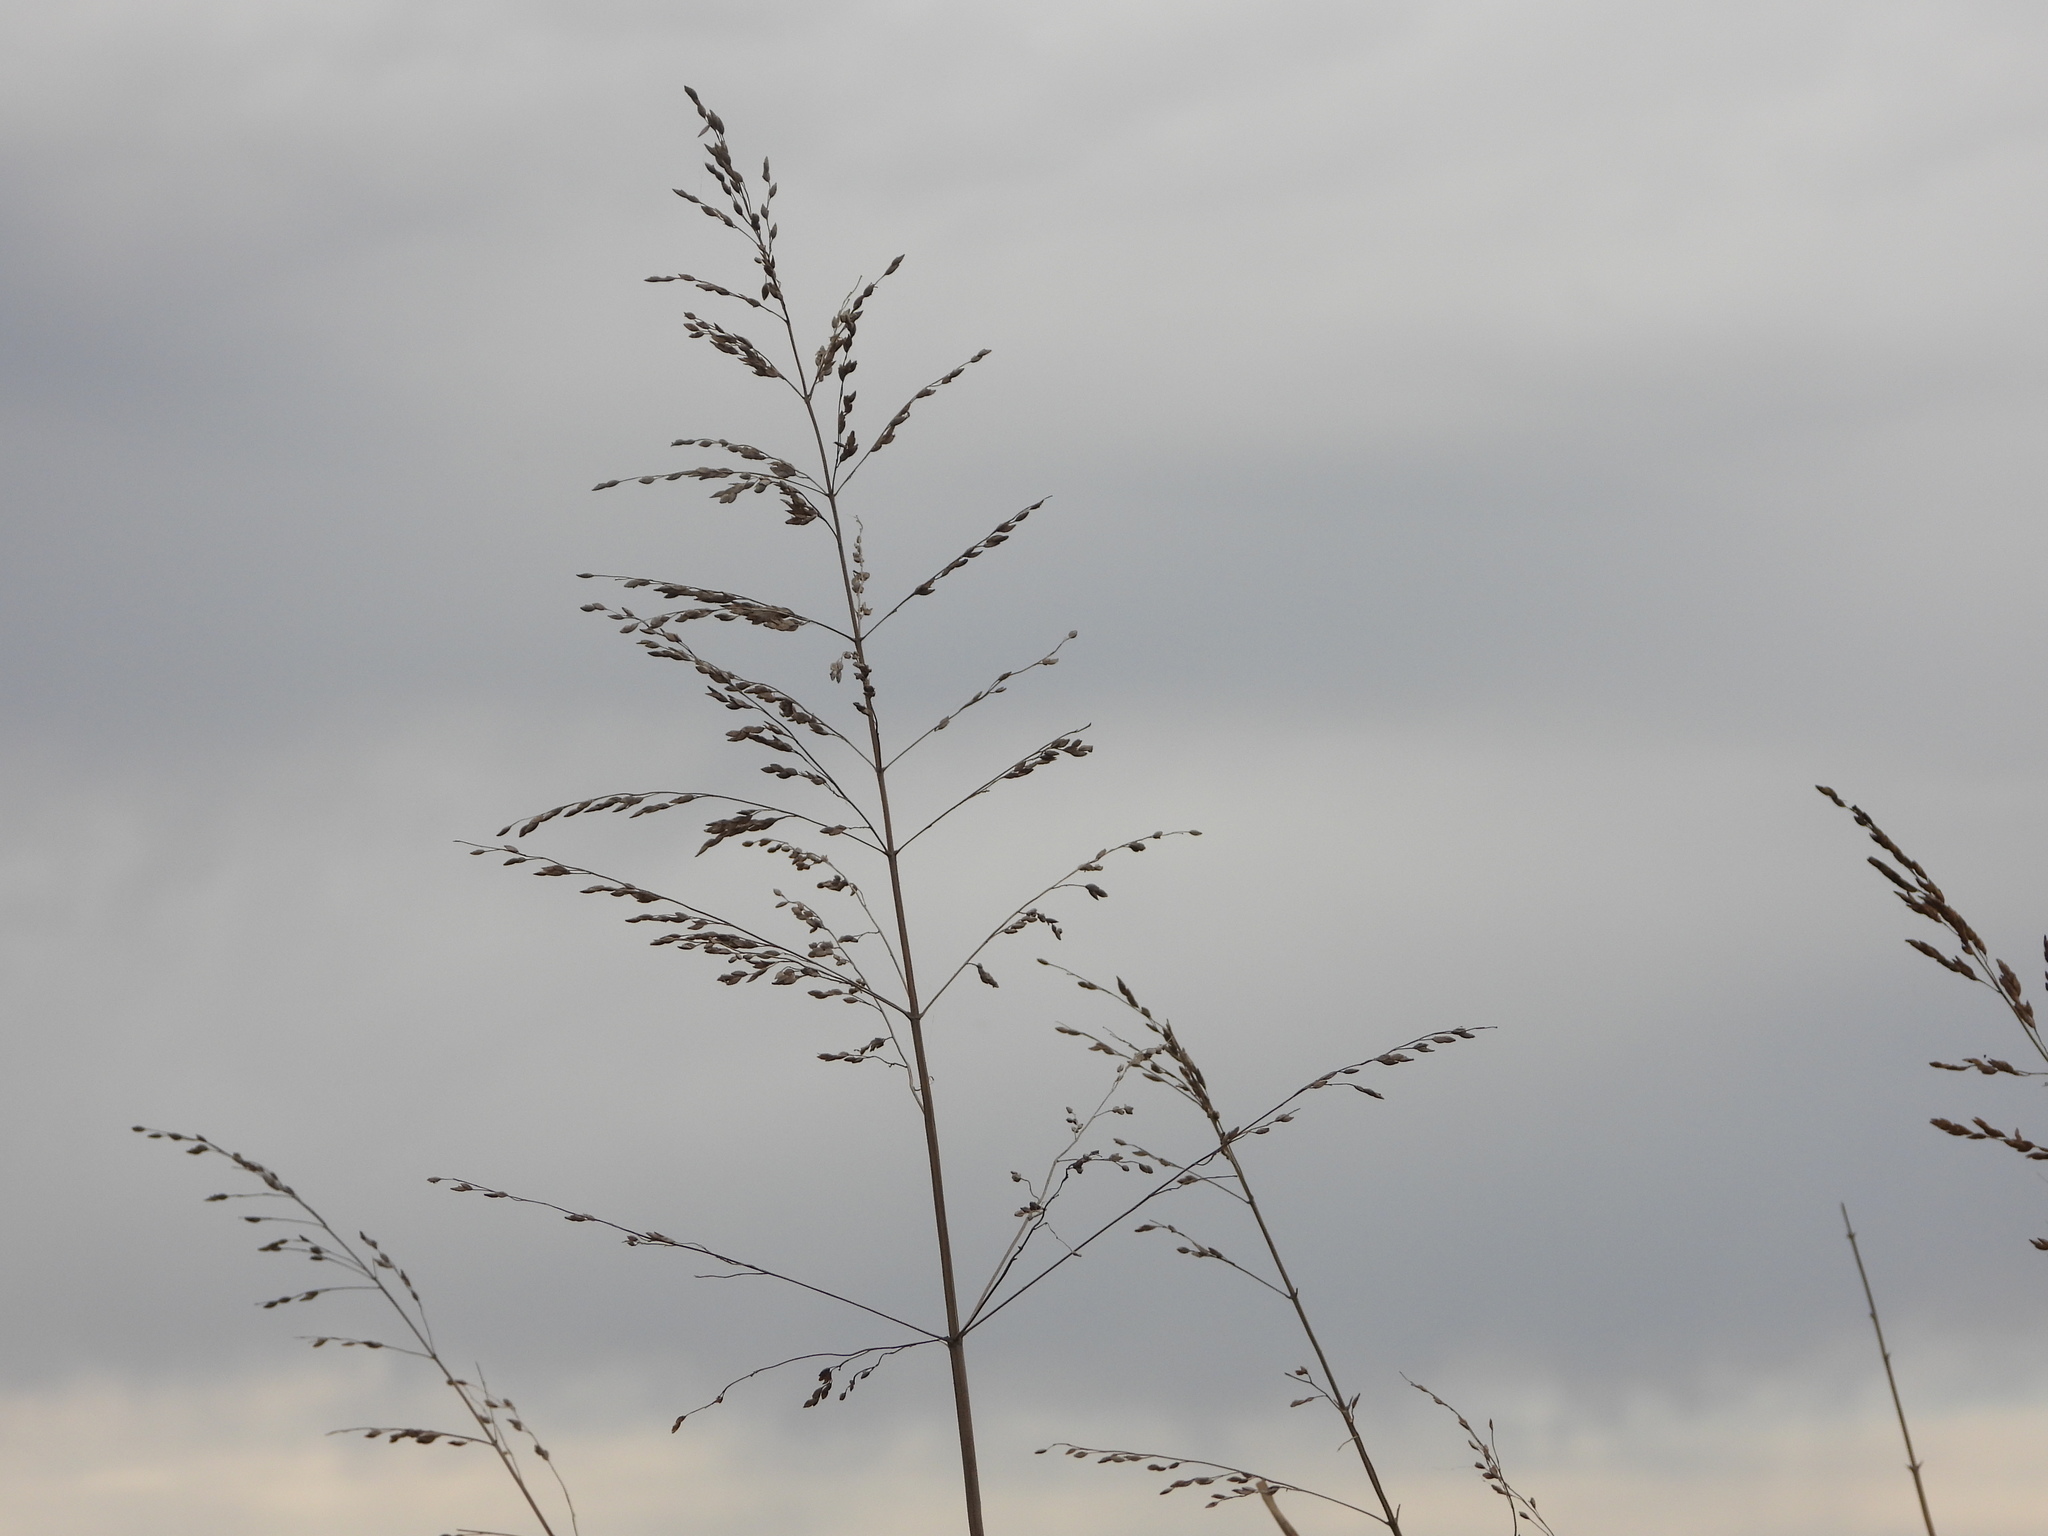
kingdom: Plantae
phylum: Tracheophyta
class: Liliopsida
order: Poales
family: Poaceae
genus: Sorghum
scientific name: Sorghum halepense
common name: Johnson-grass
